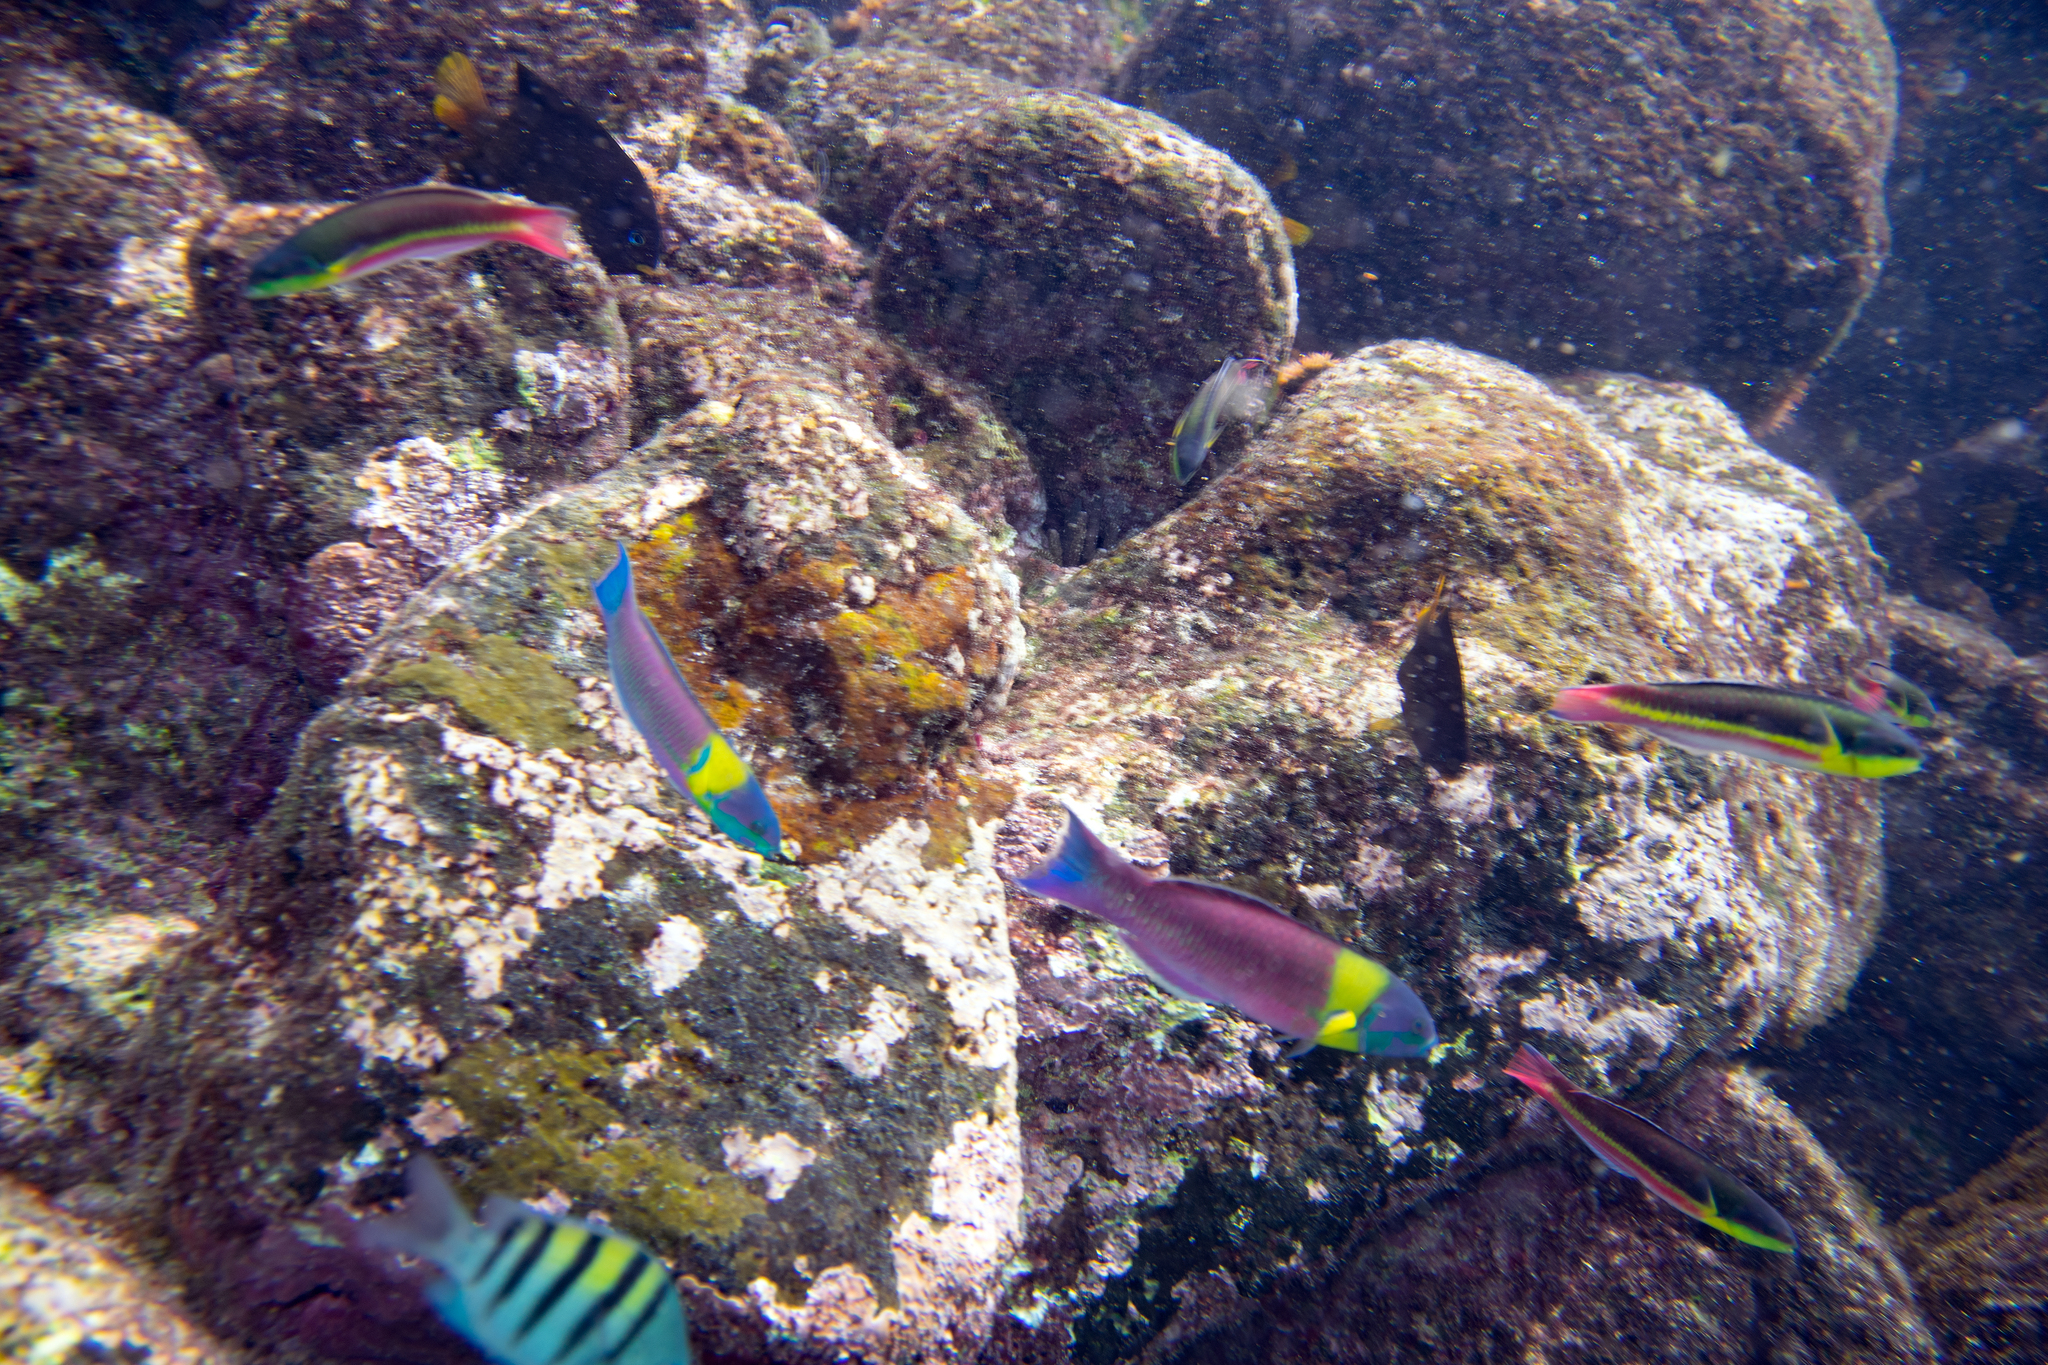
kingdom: Animalia
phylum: Chordata
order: Perciformes
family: Labridae
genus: Thalassoma
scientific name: Thalassoma lucasanum
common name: Cortez rainbow wrasse
